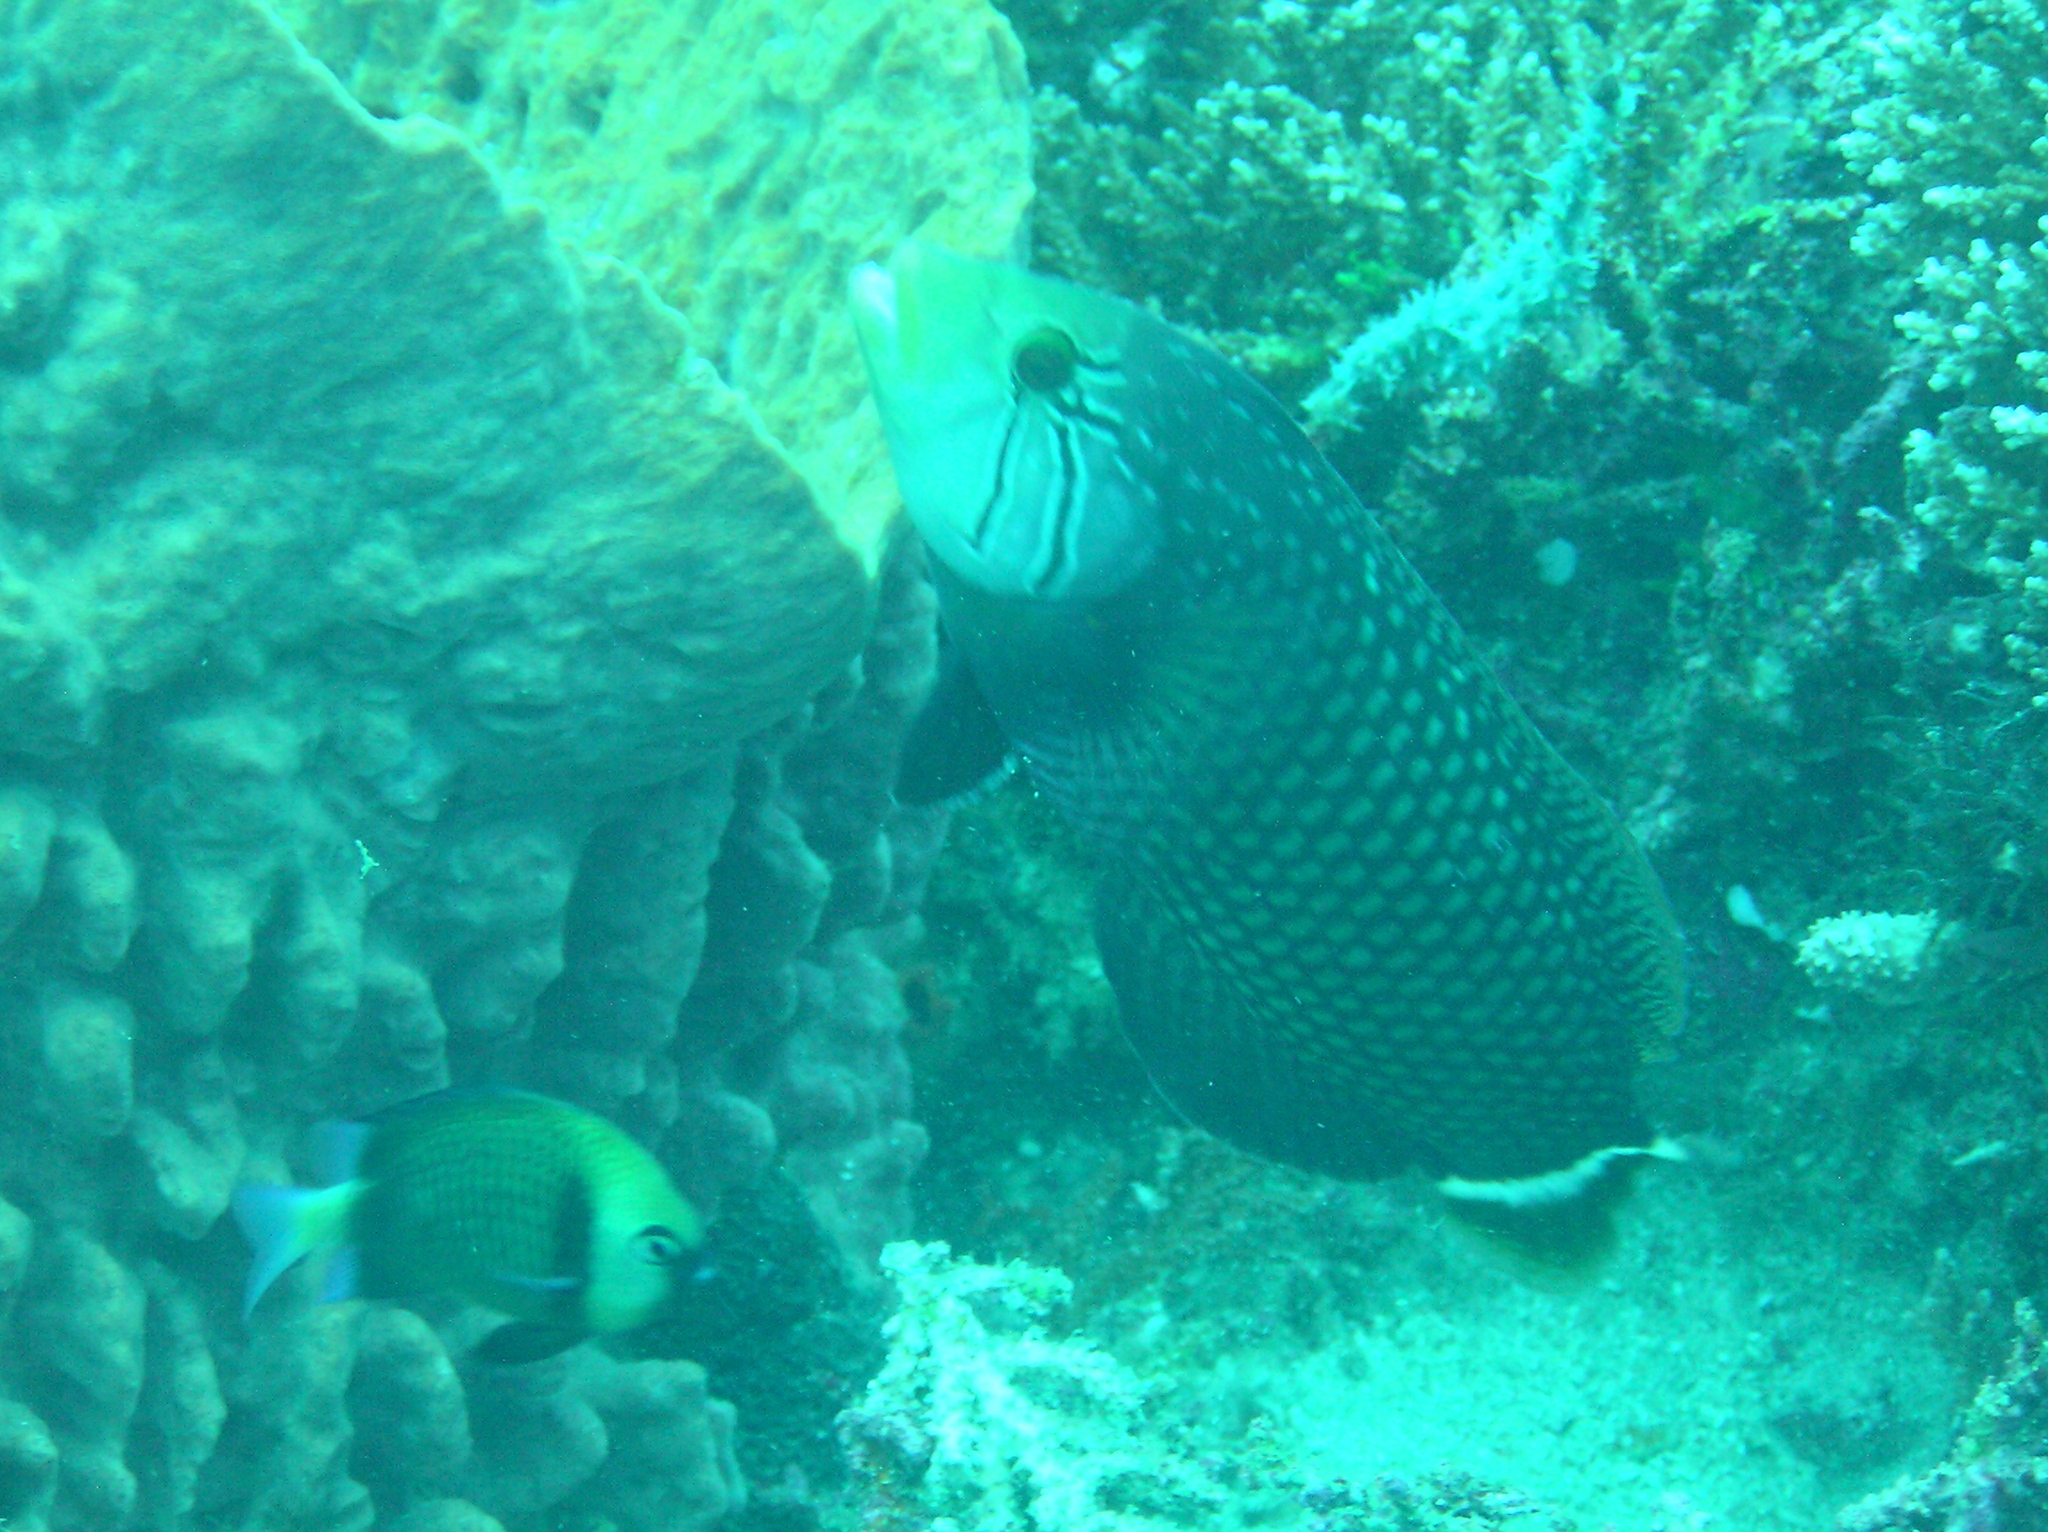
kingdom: Animalia
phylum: Chordata
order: Perciformes
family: Labridae
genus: Novaculichthys
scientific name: Novaculichthys taeniourus
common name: Rockmover wrasse
